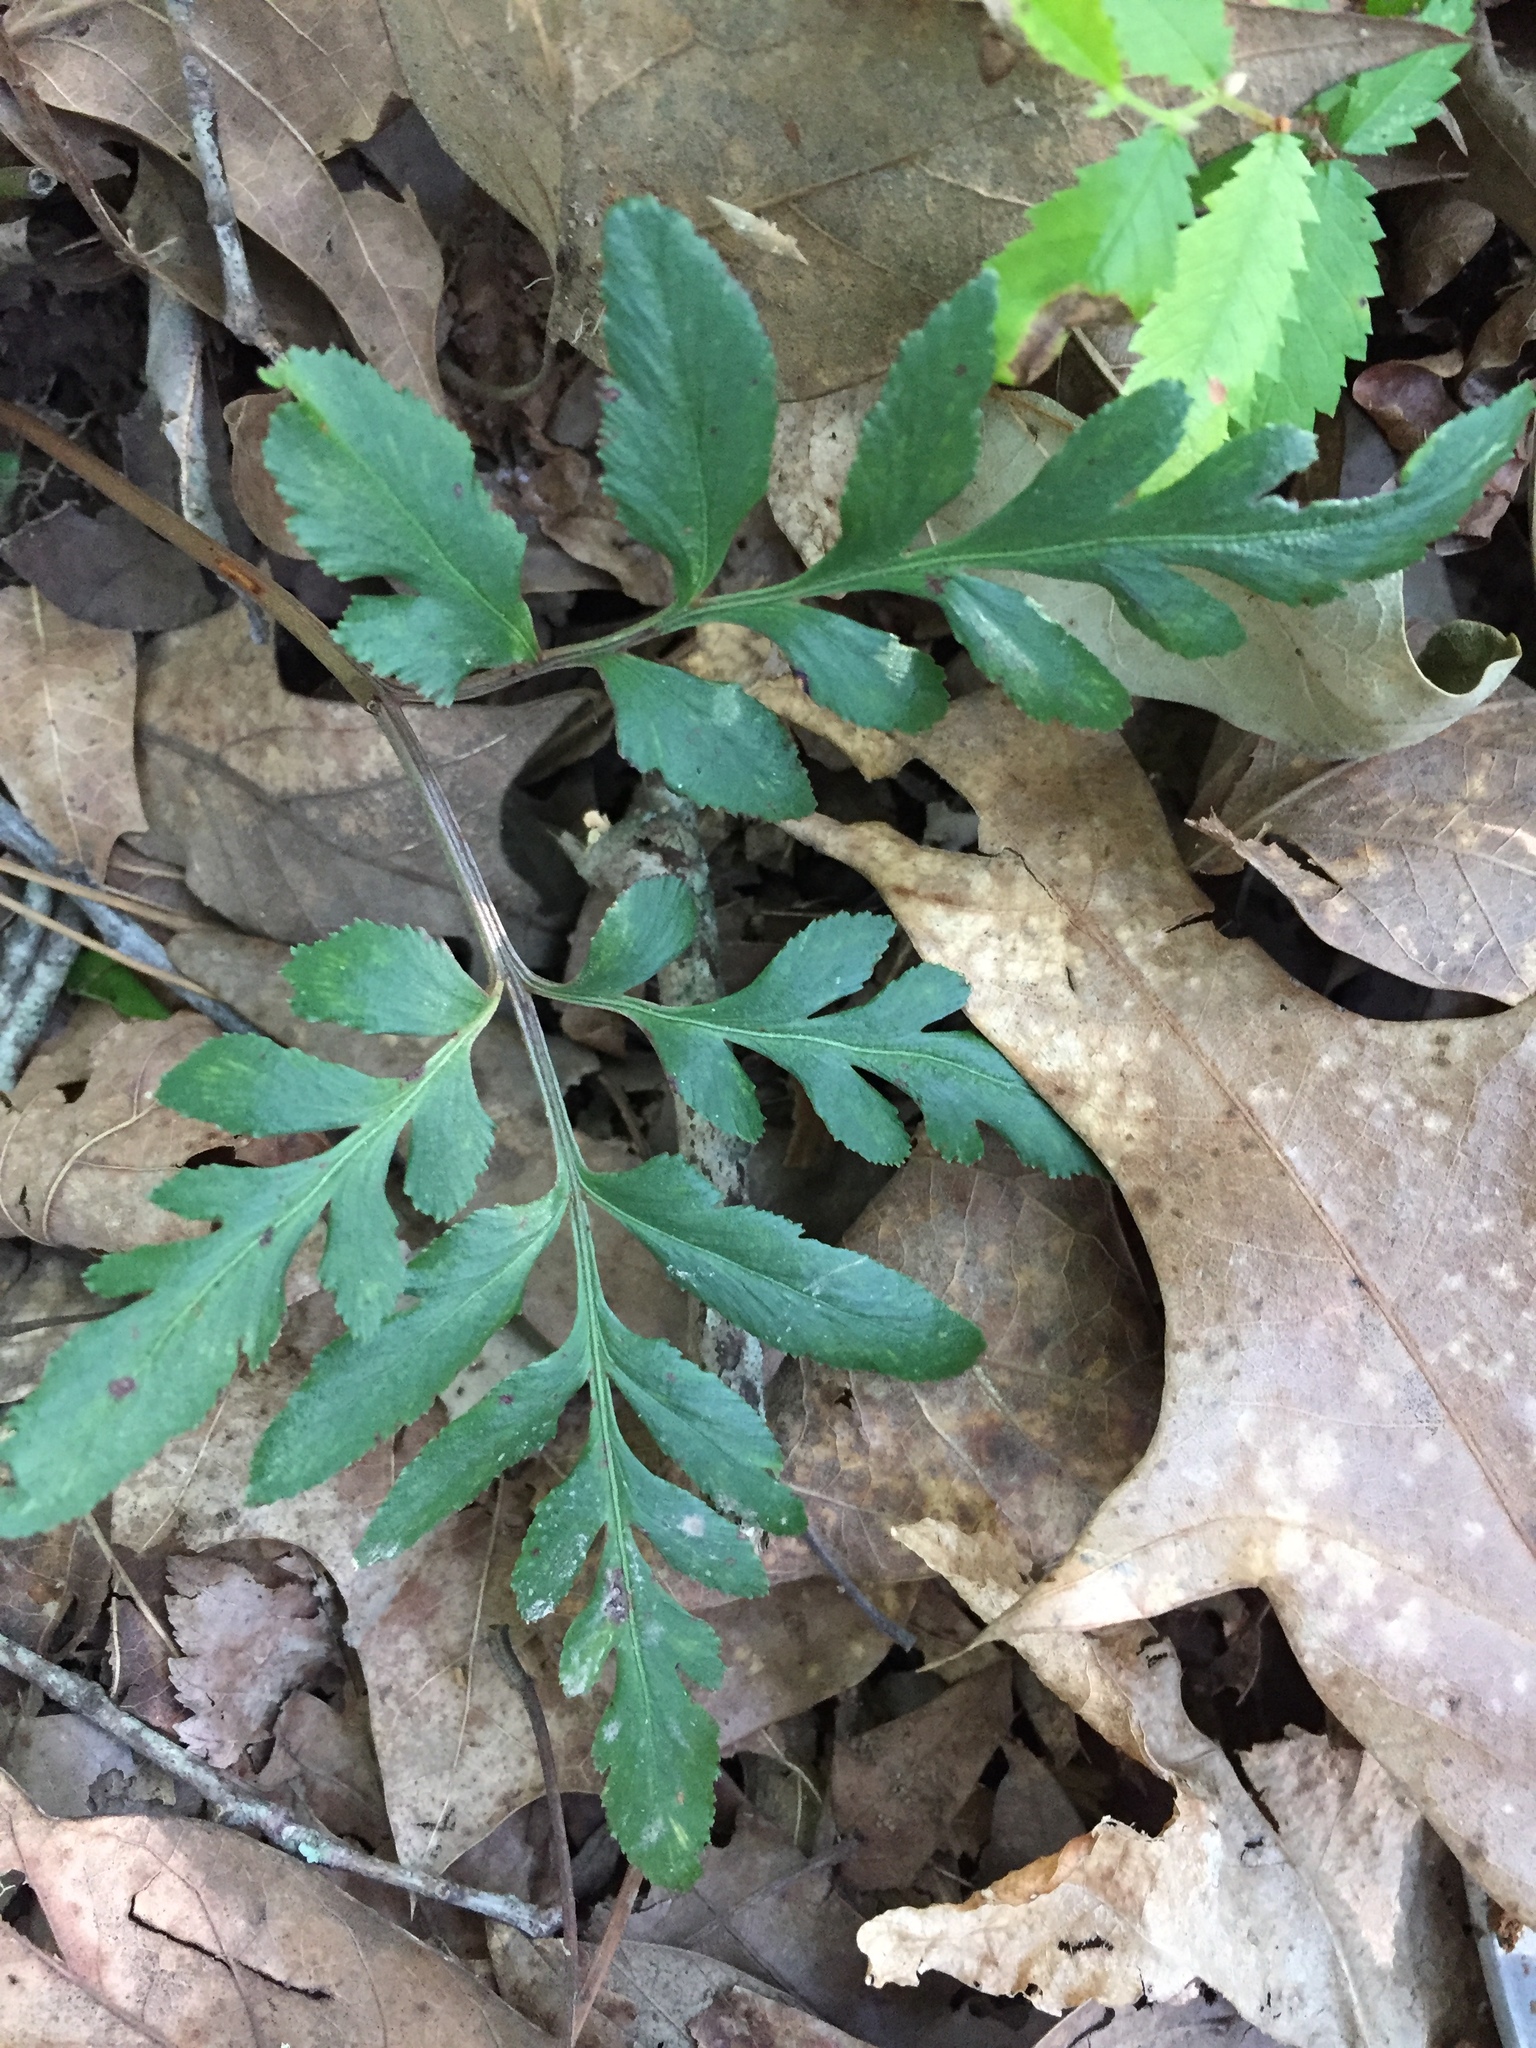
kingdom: Plantae
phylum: Tracheophyta
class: Polypodiopsida
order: Ophioglossales
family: Ophioglossaceae
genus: Sceptridium
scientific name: Sceptridium dissectum
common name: Cut-leaved grapefern
